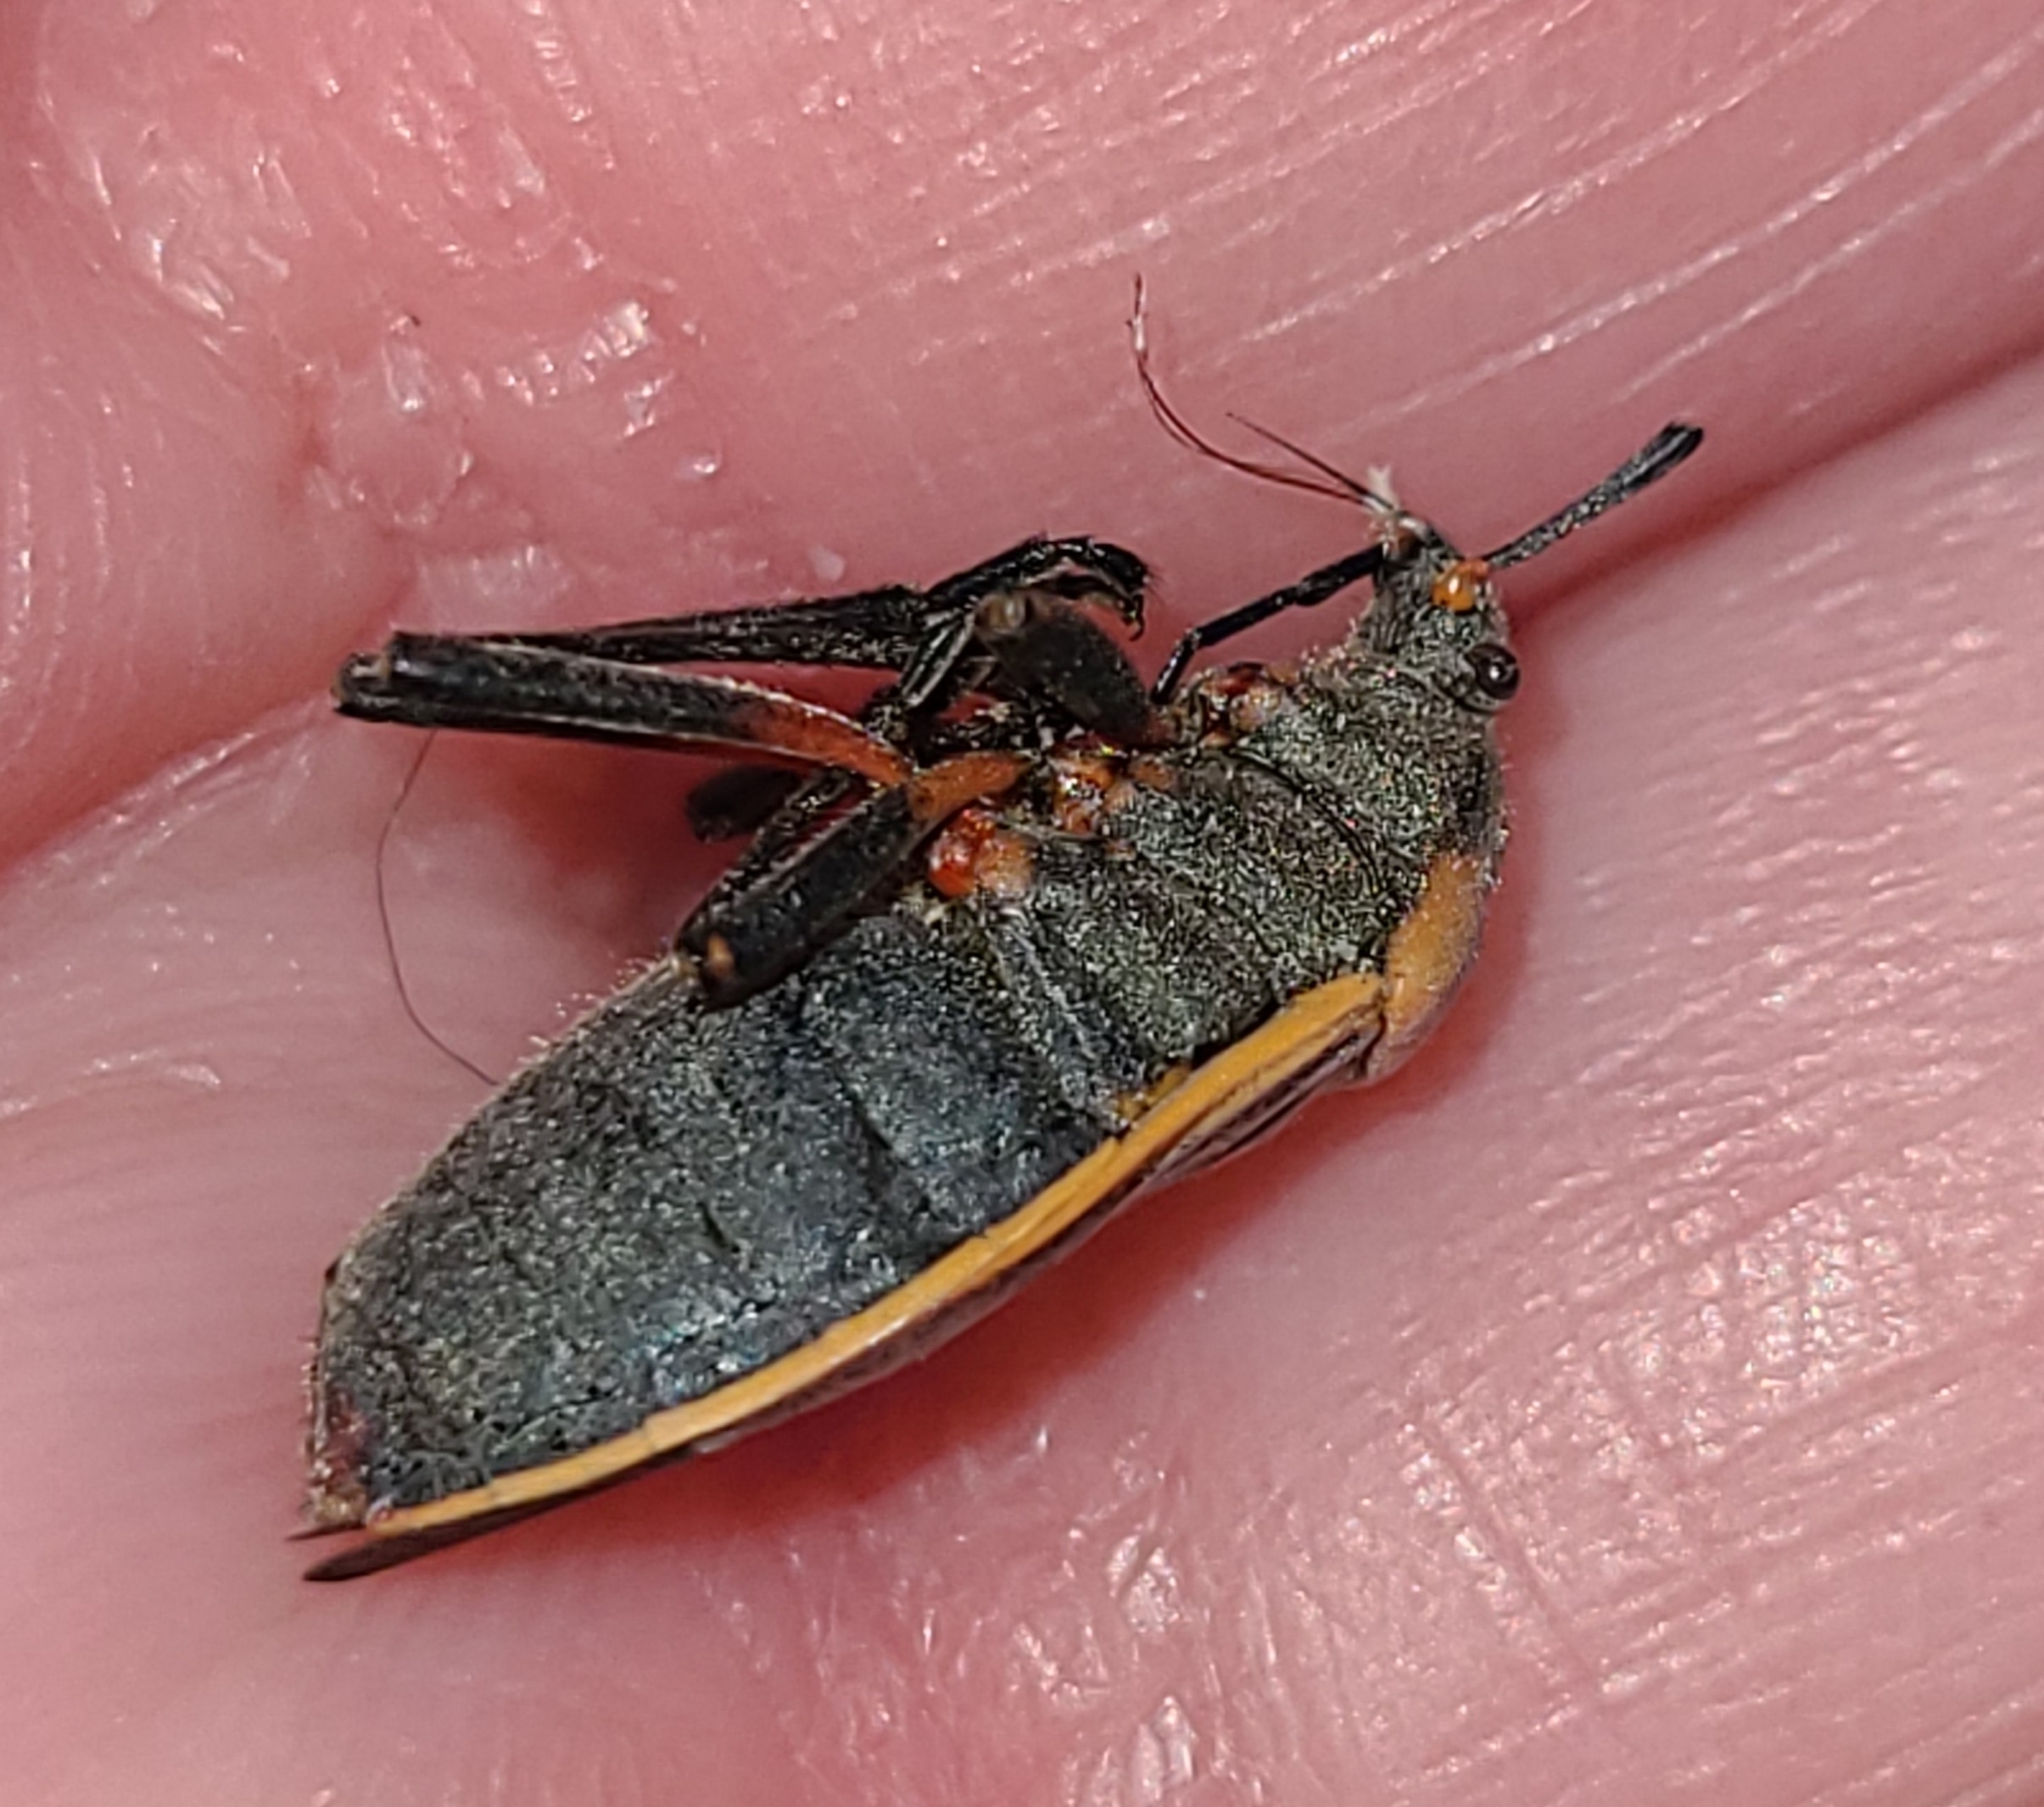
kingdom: Animalia
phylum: Arthropoda
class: Insecta
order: Hemiptera
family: Largidae
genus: Largus
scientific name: Largus californicus
